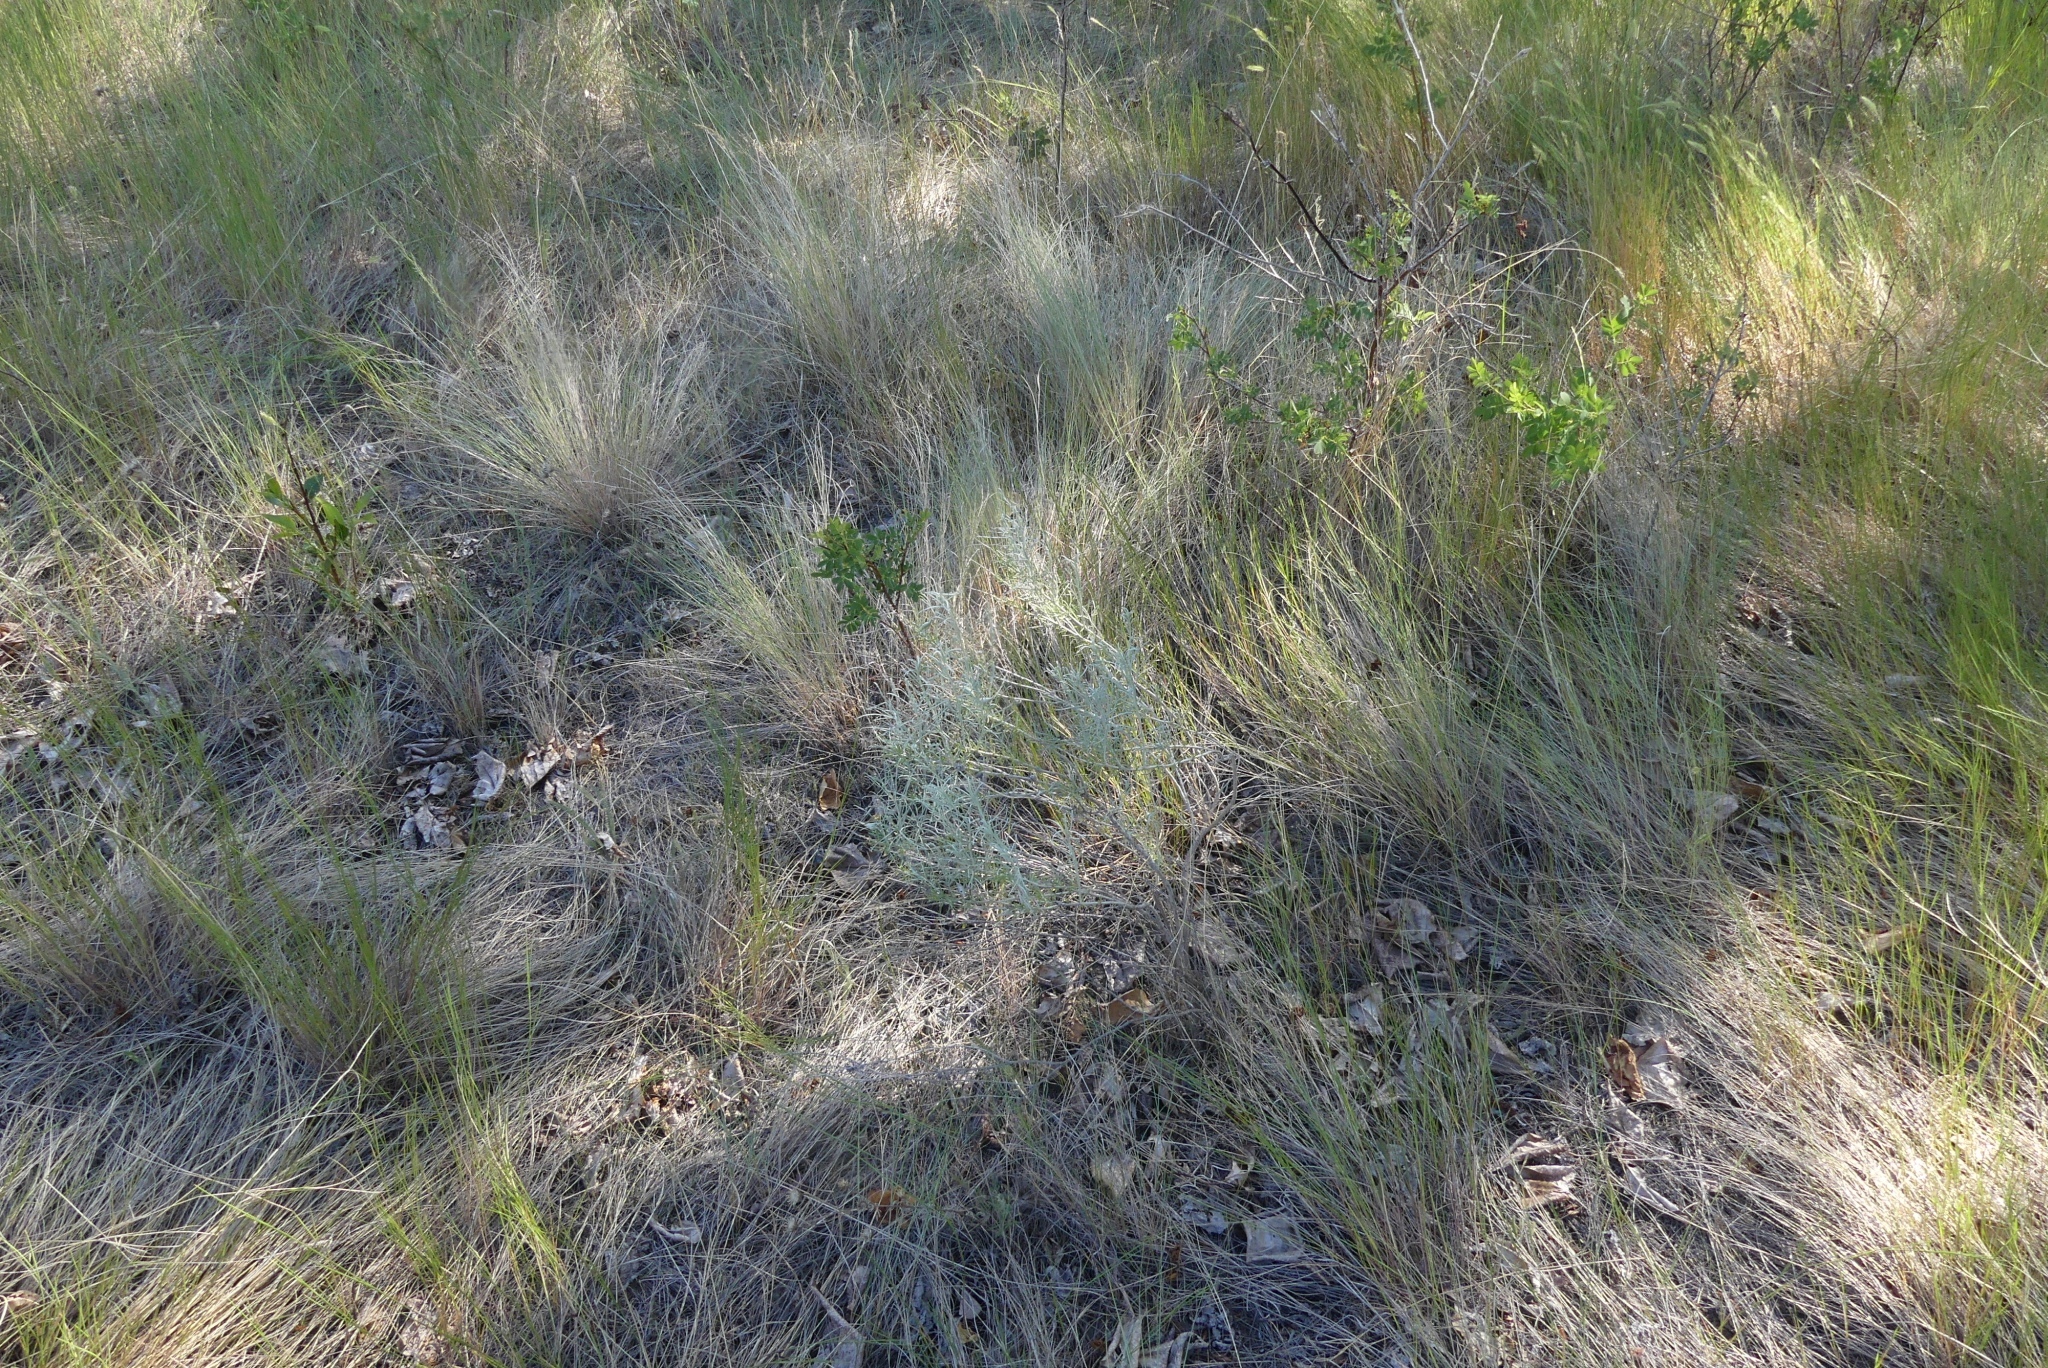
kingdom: Plantae
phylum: Tracheophyta
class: Magnoliopsida
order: Asterales
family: Asteraceae
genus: Ericameria
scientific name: Ericameria nauseosa
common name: Rubber rabbitbrush
